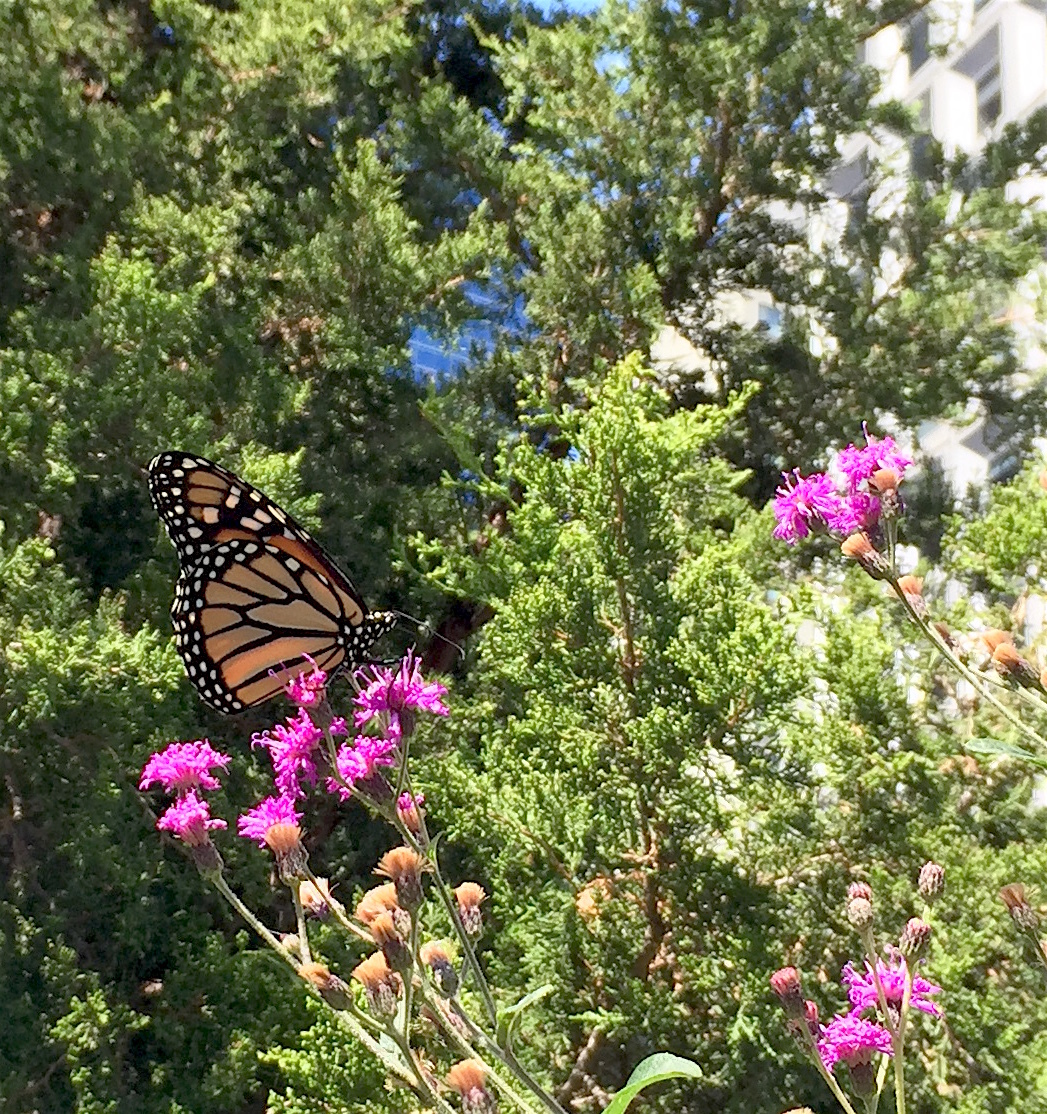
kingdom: Animalia
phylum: Arthropoda
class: Insecta
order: Lepidoptera
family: Nymphalidae
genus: Danaus
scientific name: Danaus plexippus
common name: Monarch
